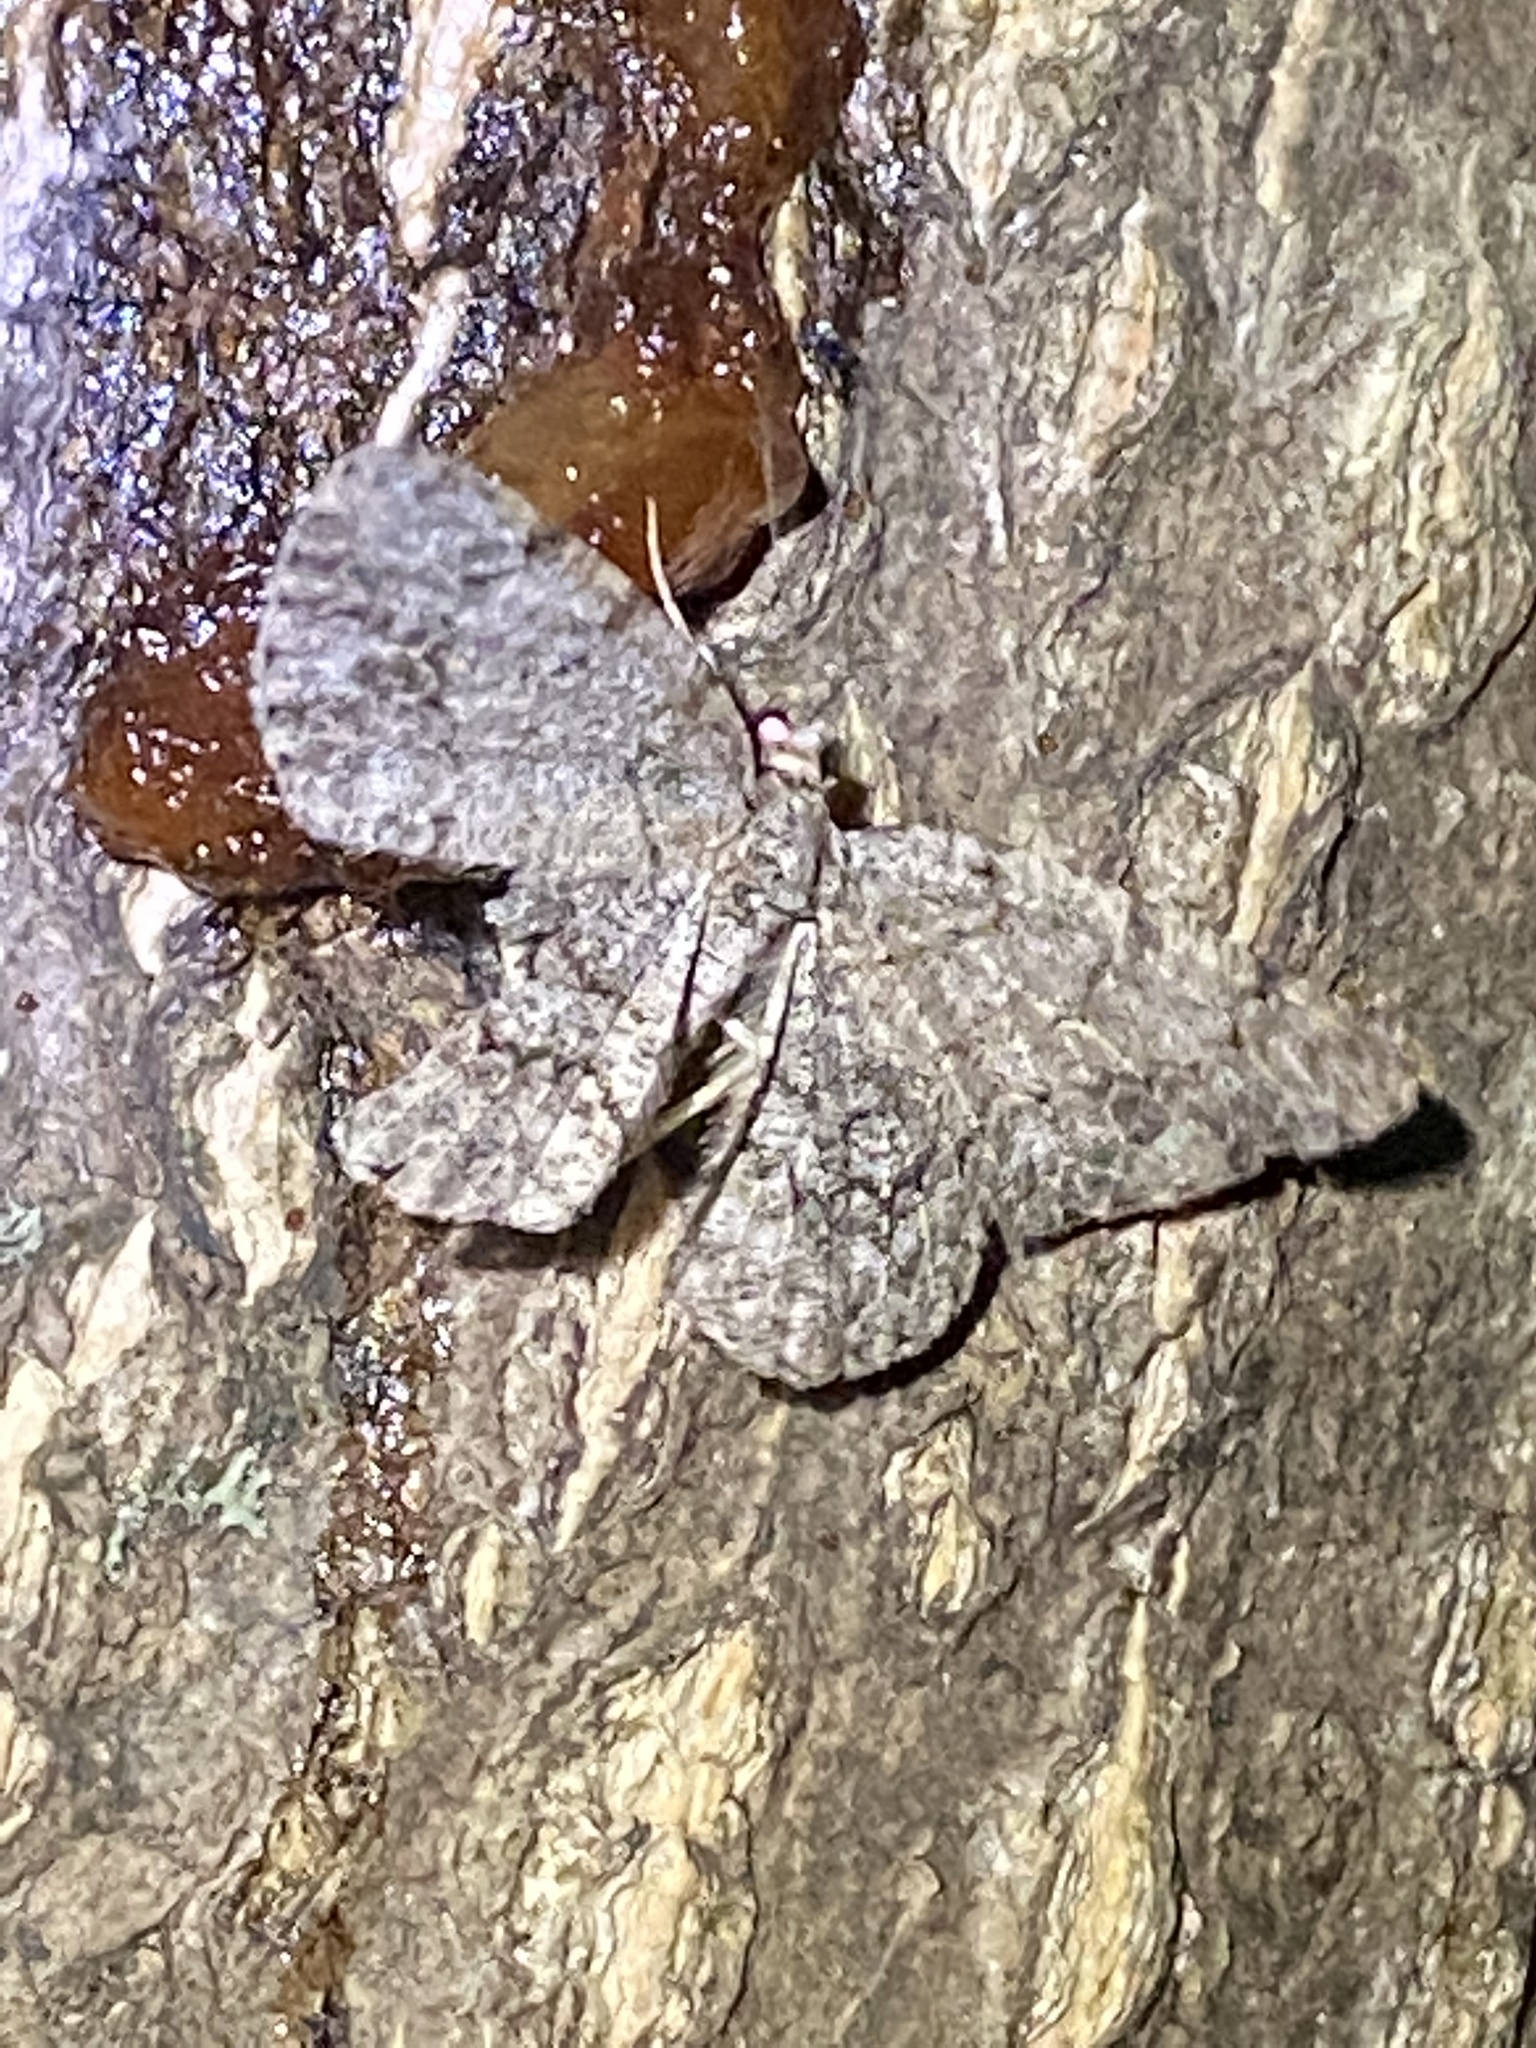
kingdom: Animalia
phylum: Arthropoda
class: Insecta
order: Lepidoptera
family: Geometridae
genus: Protoboarmia
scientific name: Protoboarmia porcelaria
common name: Porcelain gray
